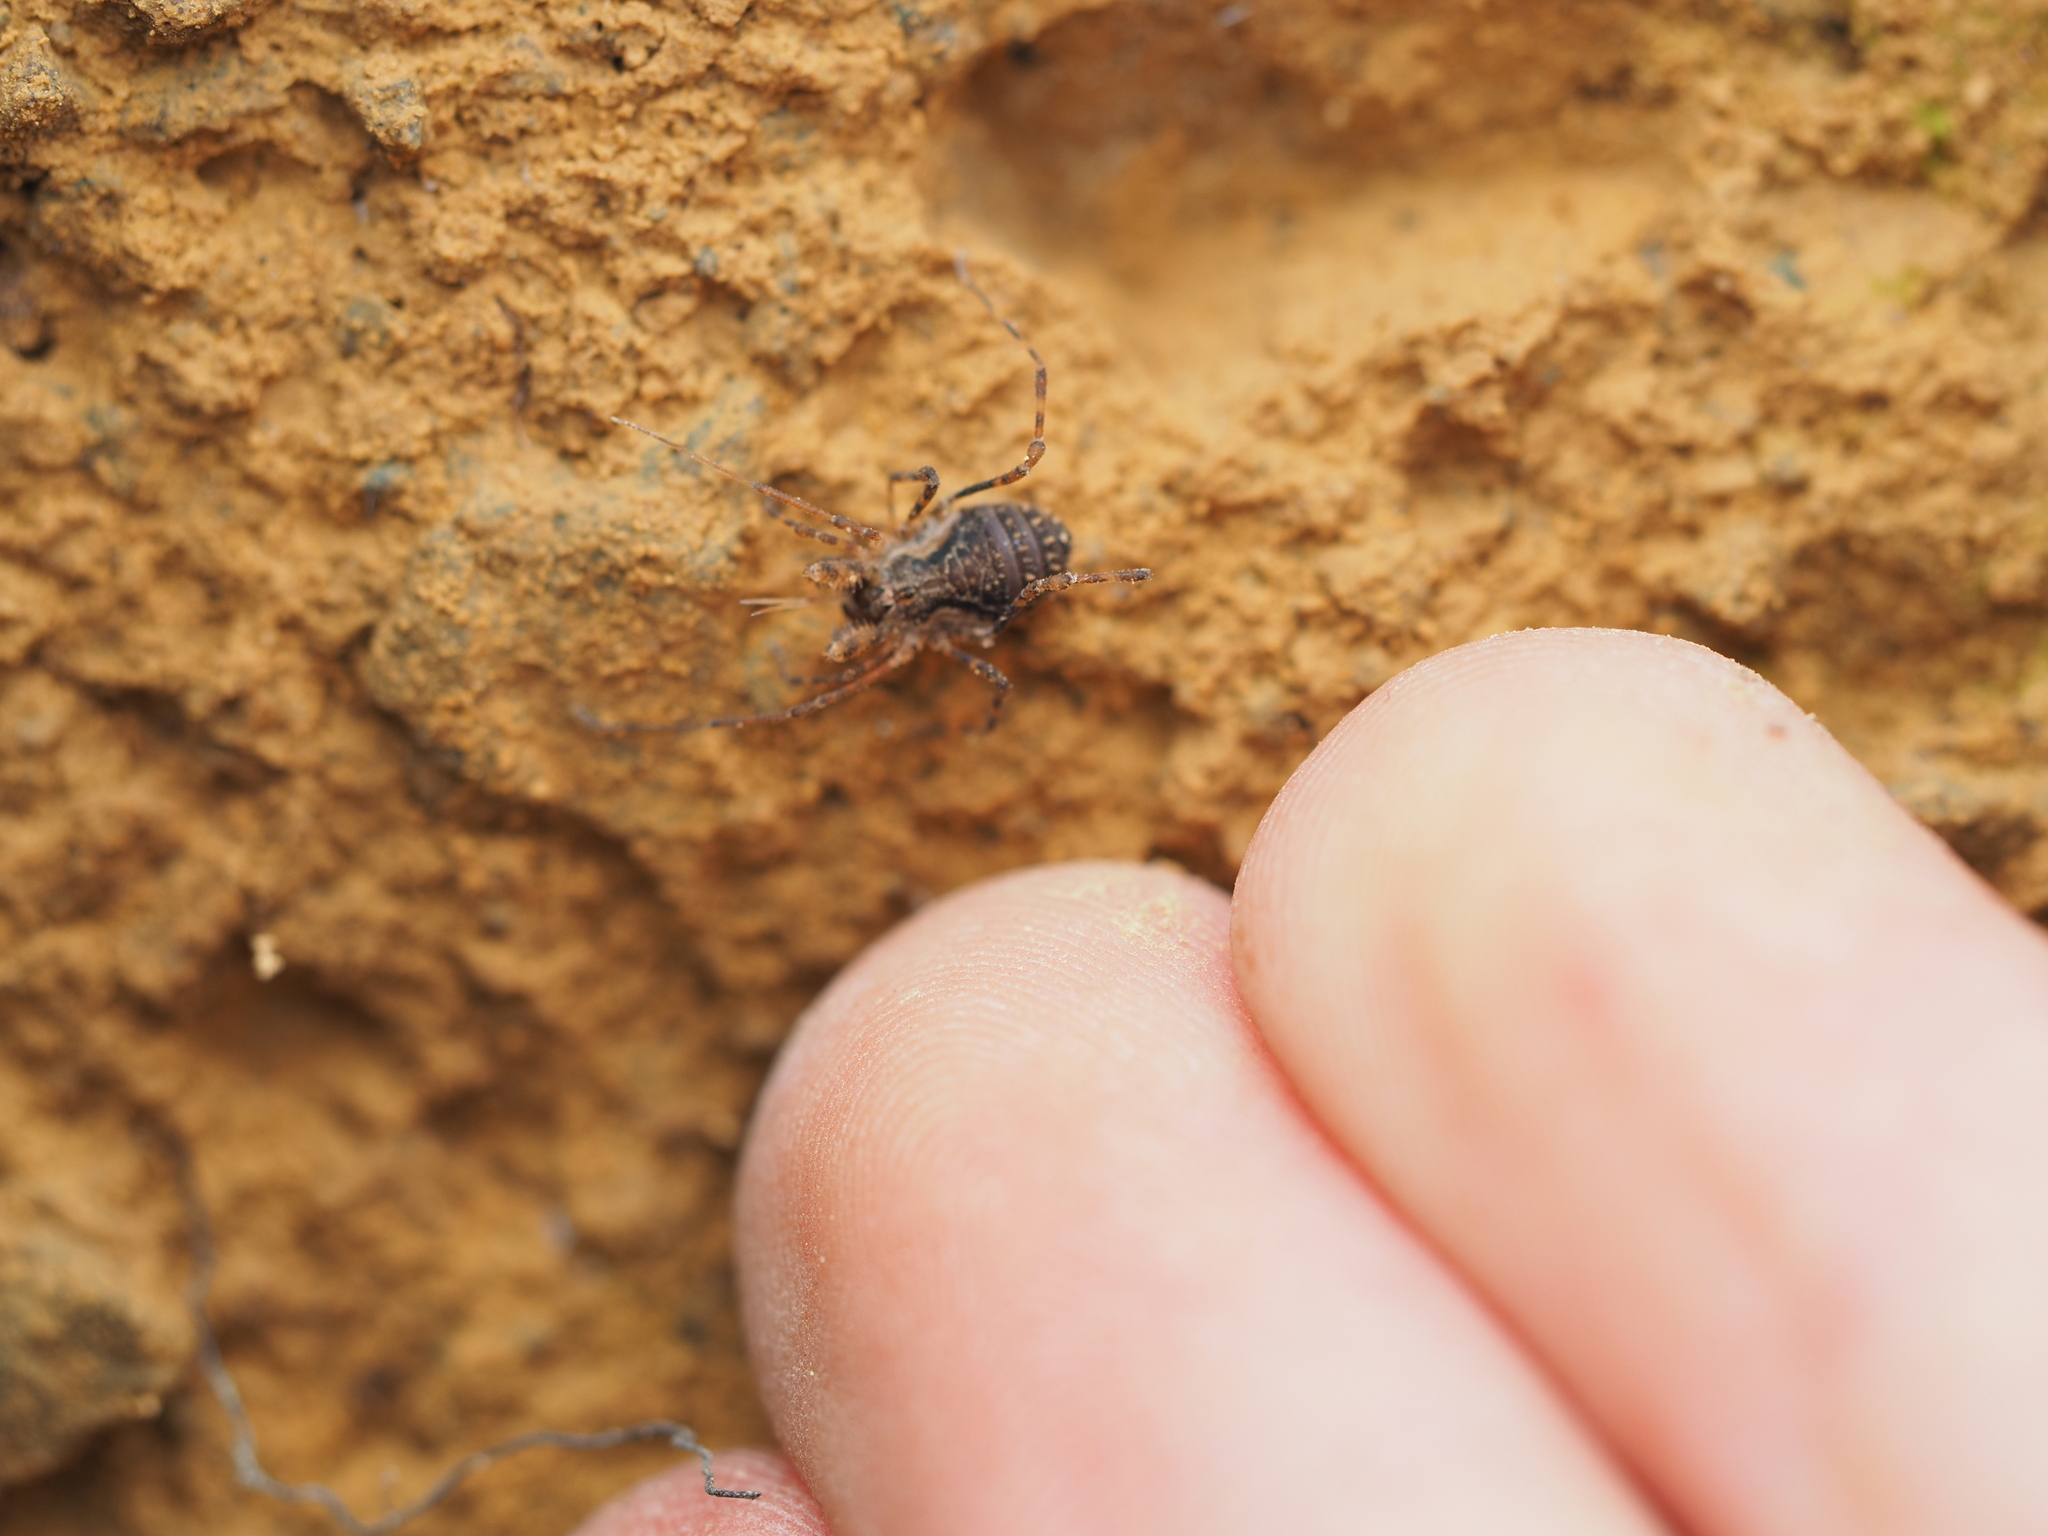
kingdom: Animalia
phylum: Arthropoda
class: Arachnida
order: Opiliones
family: Triaenonychidae
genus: Algidia
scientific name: Algidia cuspidata
